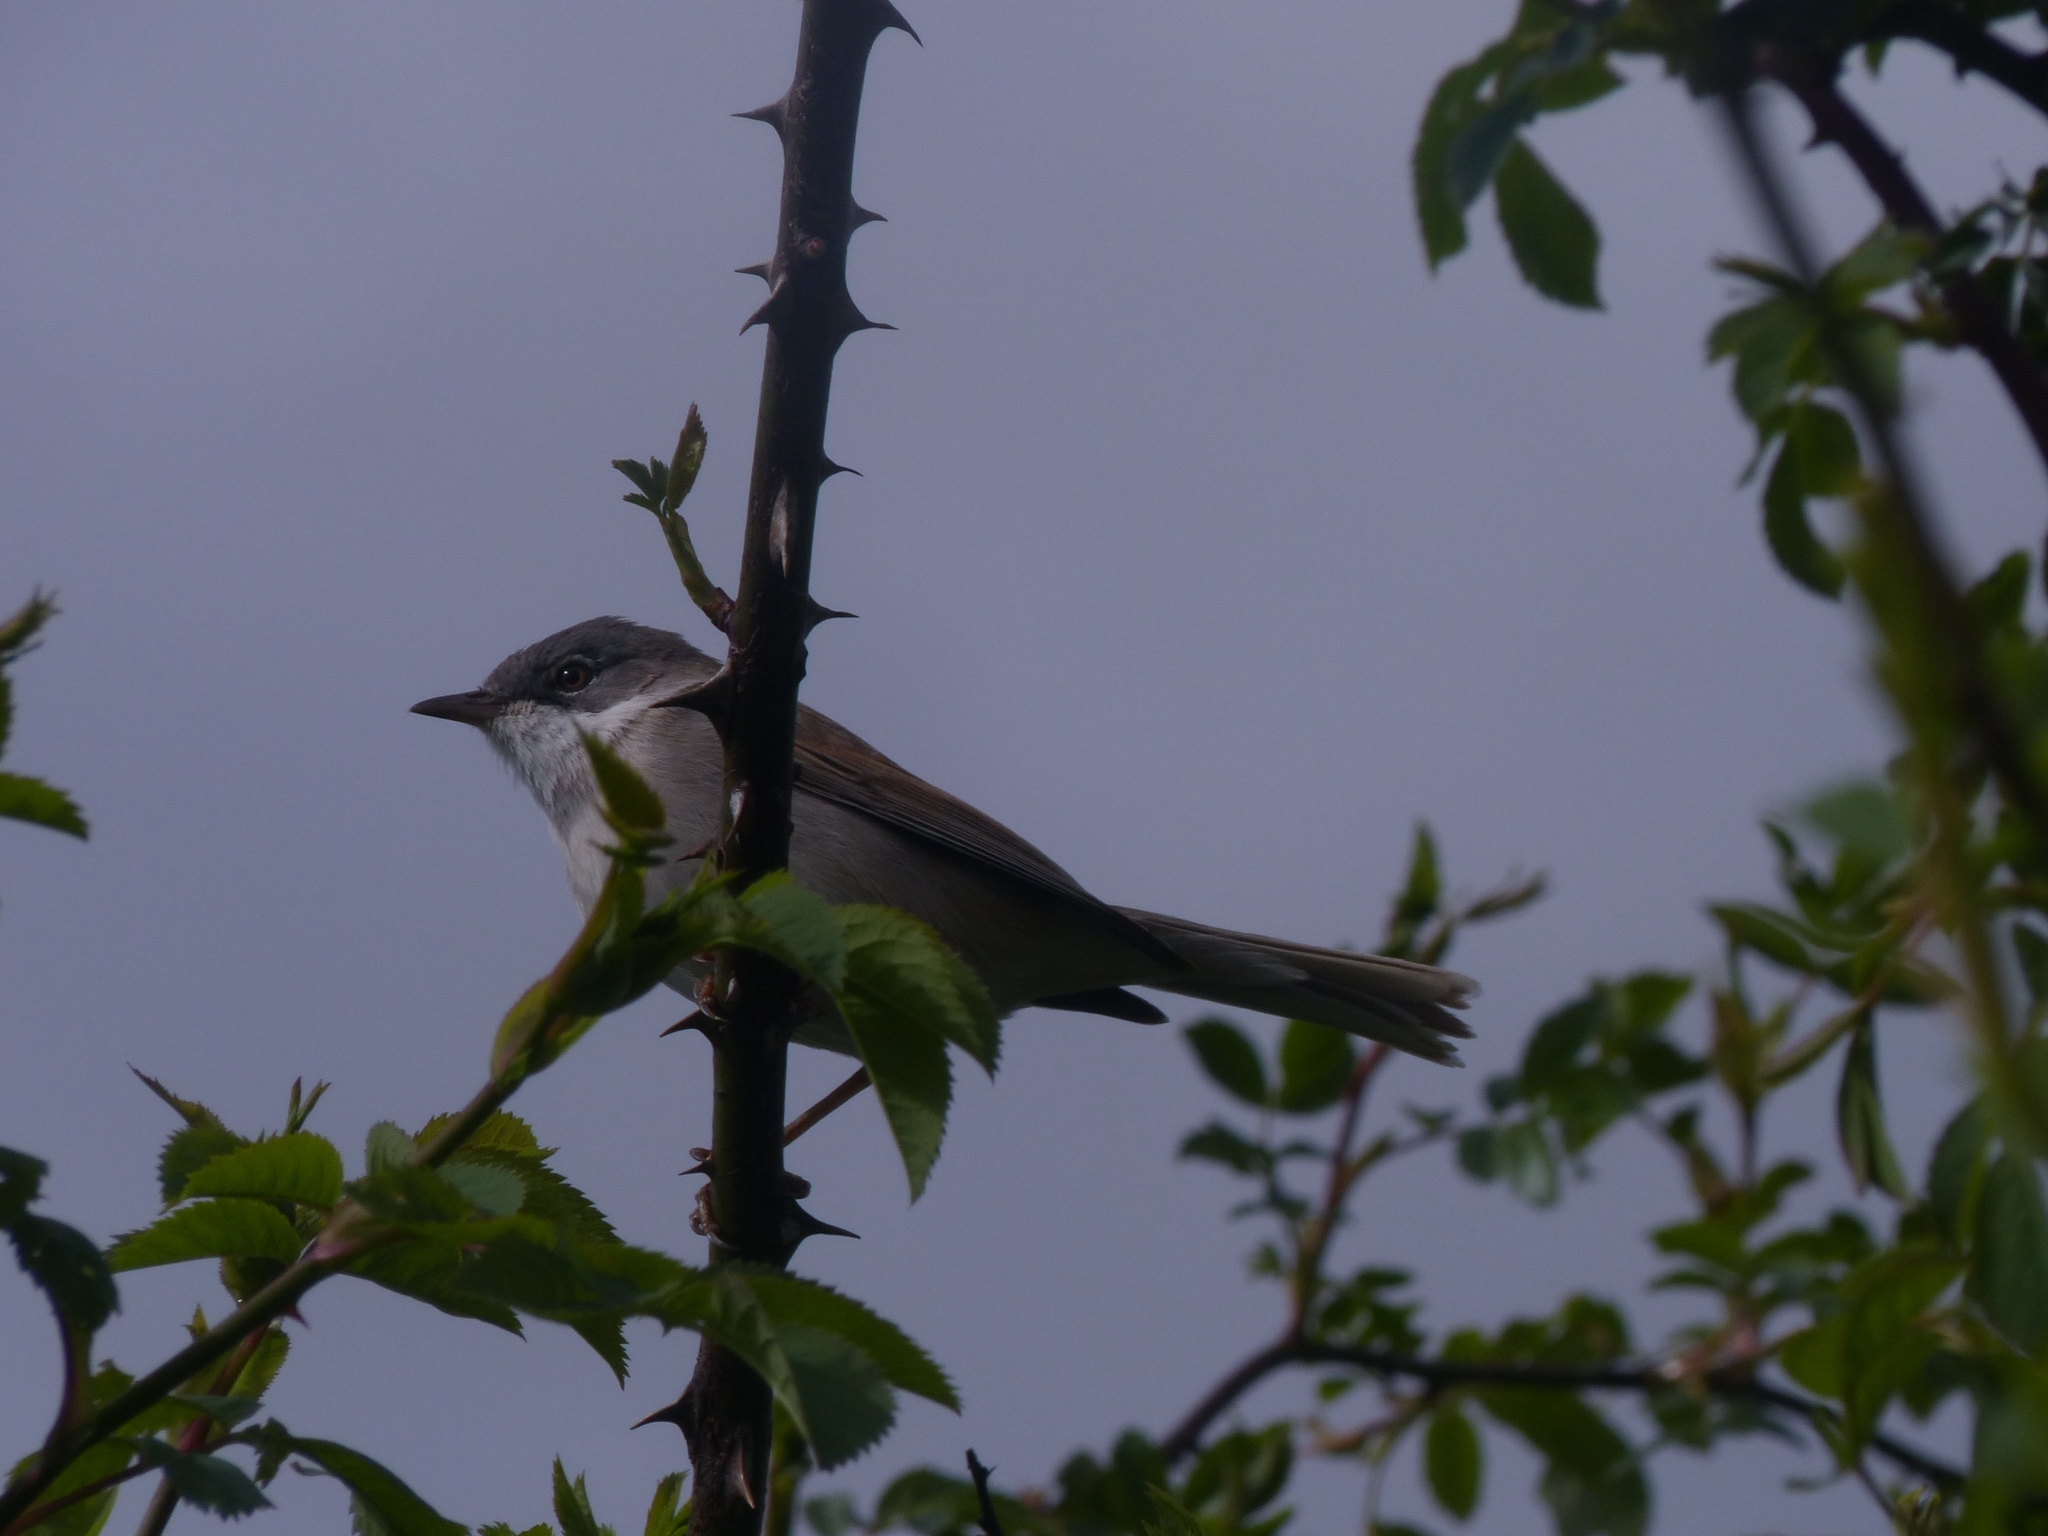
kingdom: Animalia
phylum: Chordata
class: Aves
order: Passeriformes
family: Sylviidae
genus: Sylvia
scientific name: Sylvia communis
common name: Common whitethroat
